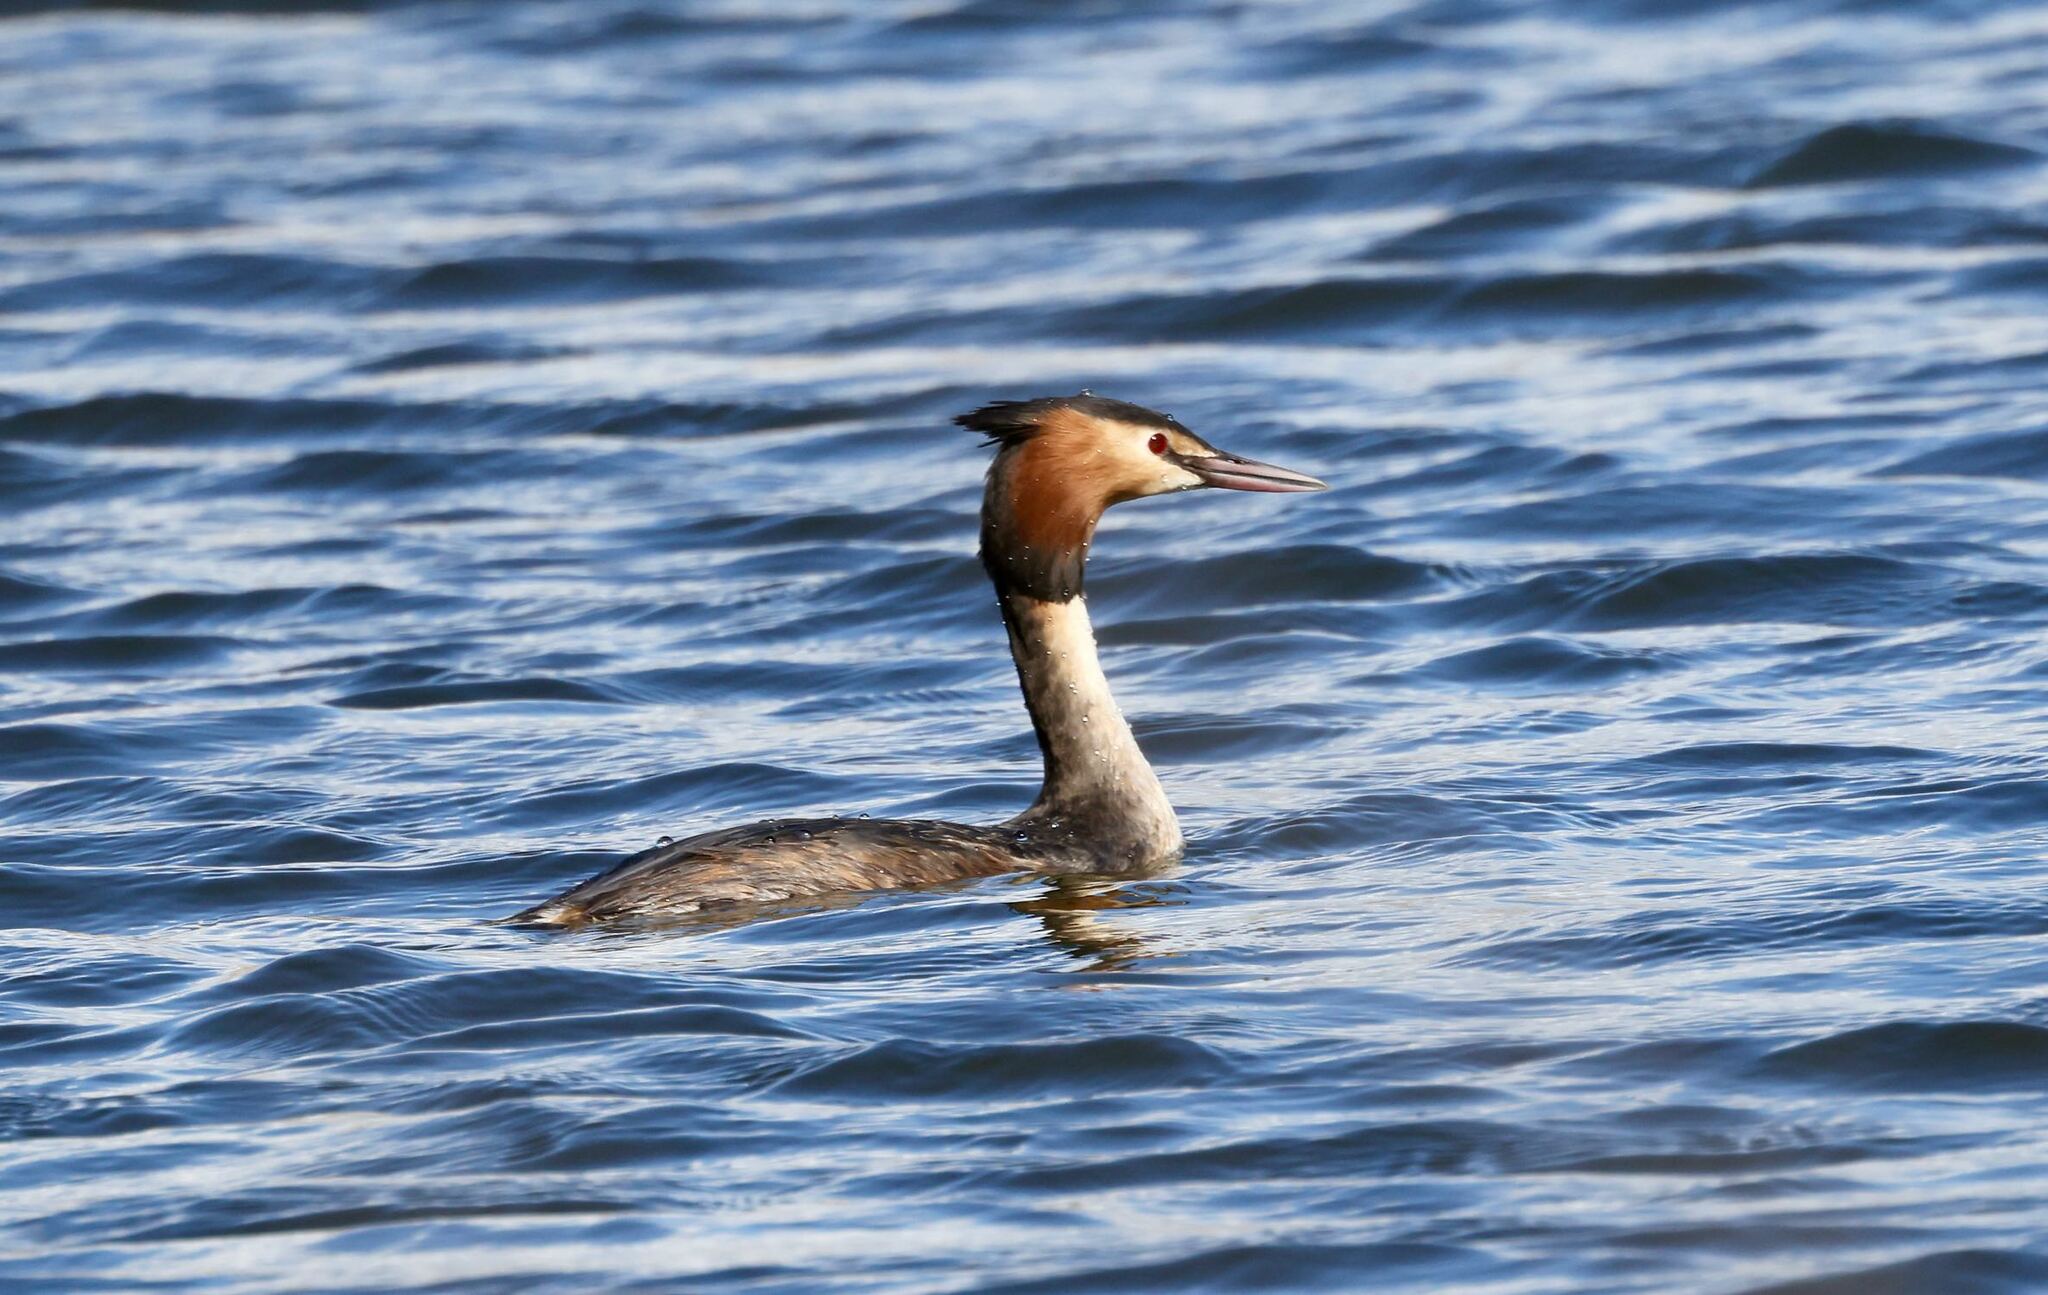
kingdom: Animalia
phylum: Chordata
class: Aves
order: Podicipediformes
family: Podicipedidae
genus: Podiceps
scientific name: Podiceps cristatus
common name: Great crested grebe
